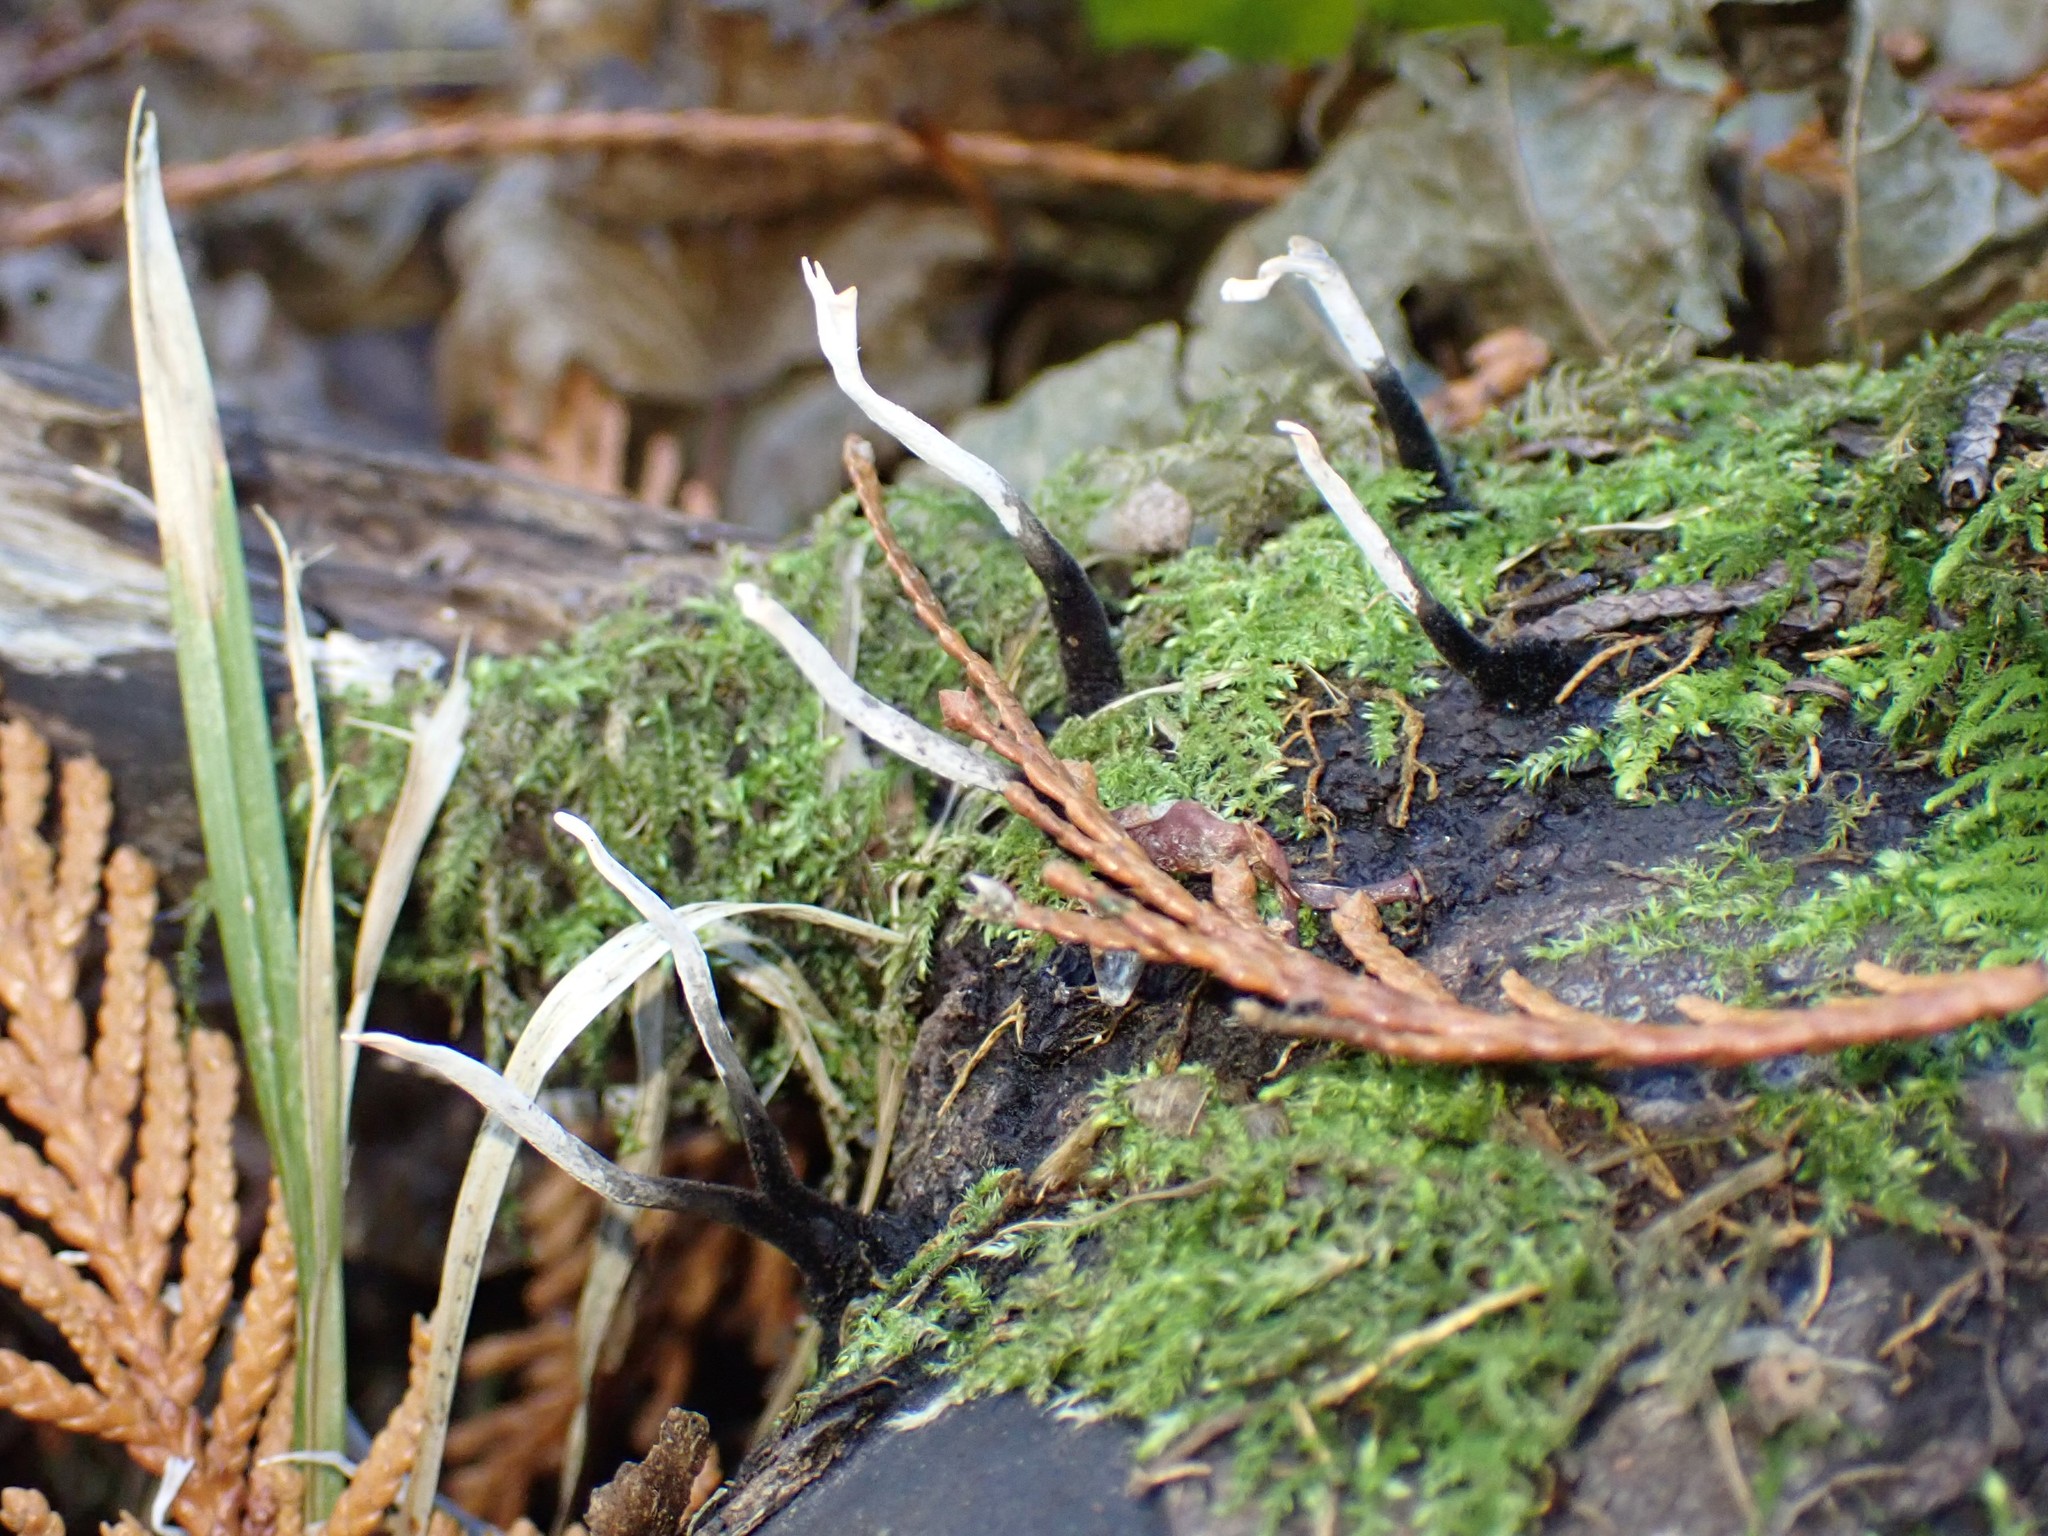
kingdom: Fungi
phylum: Ascomycota
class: Sordariomycetes
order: Xylariales
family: Xylariaceae
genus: Xylaria
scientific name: Xylaria hypoxylon
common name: Candle-snuff fungus
